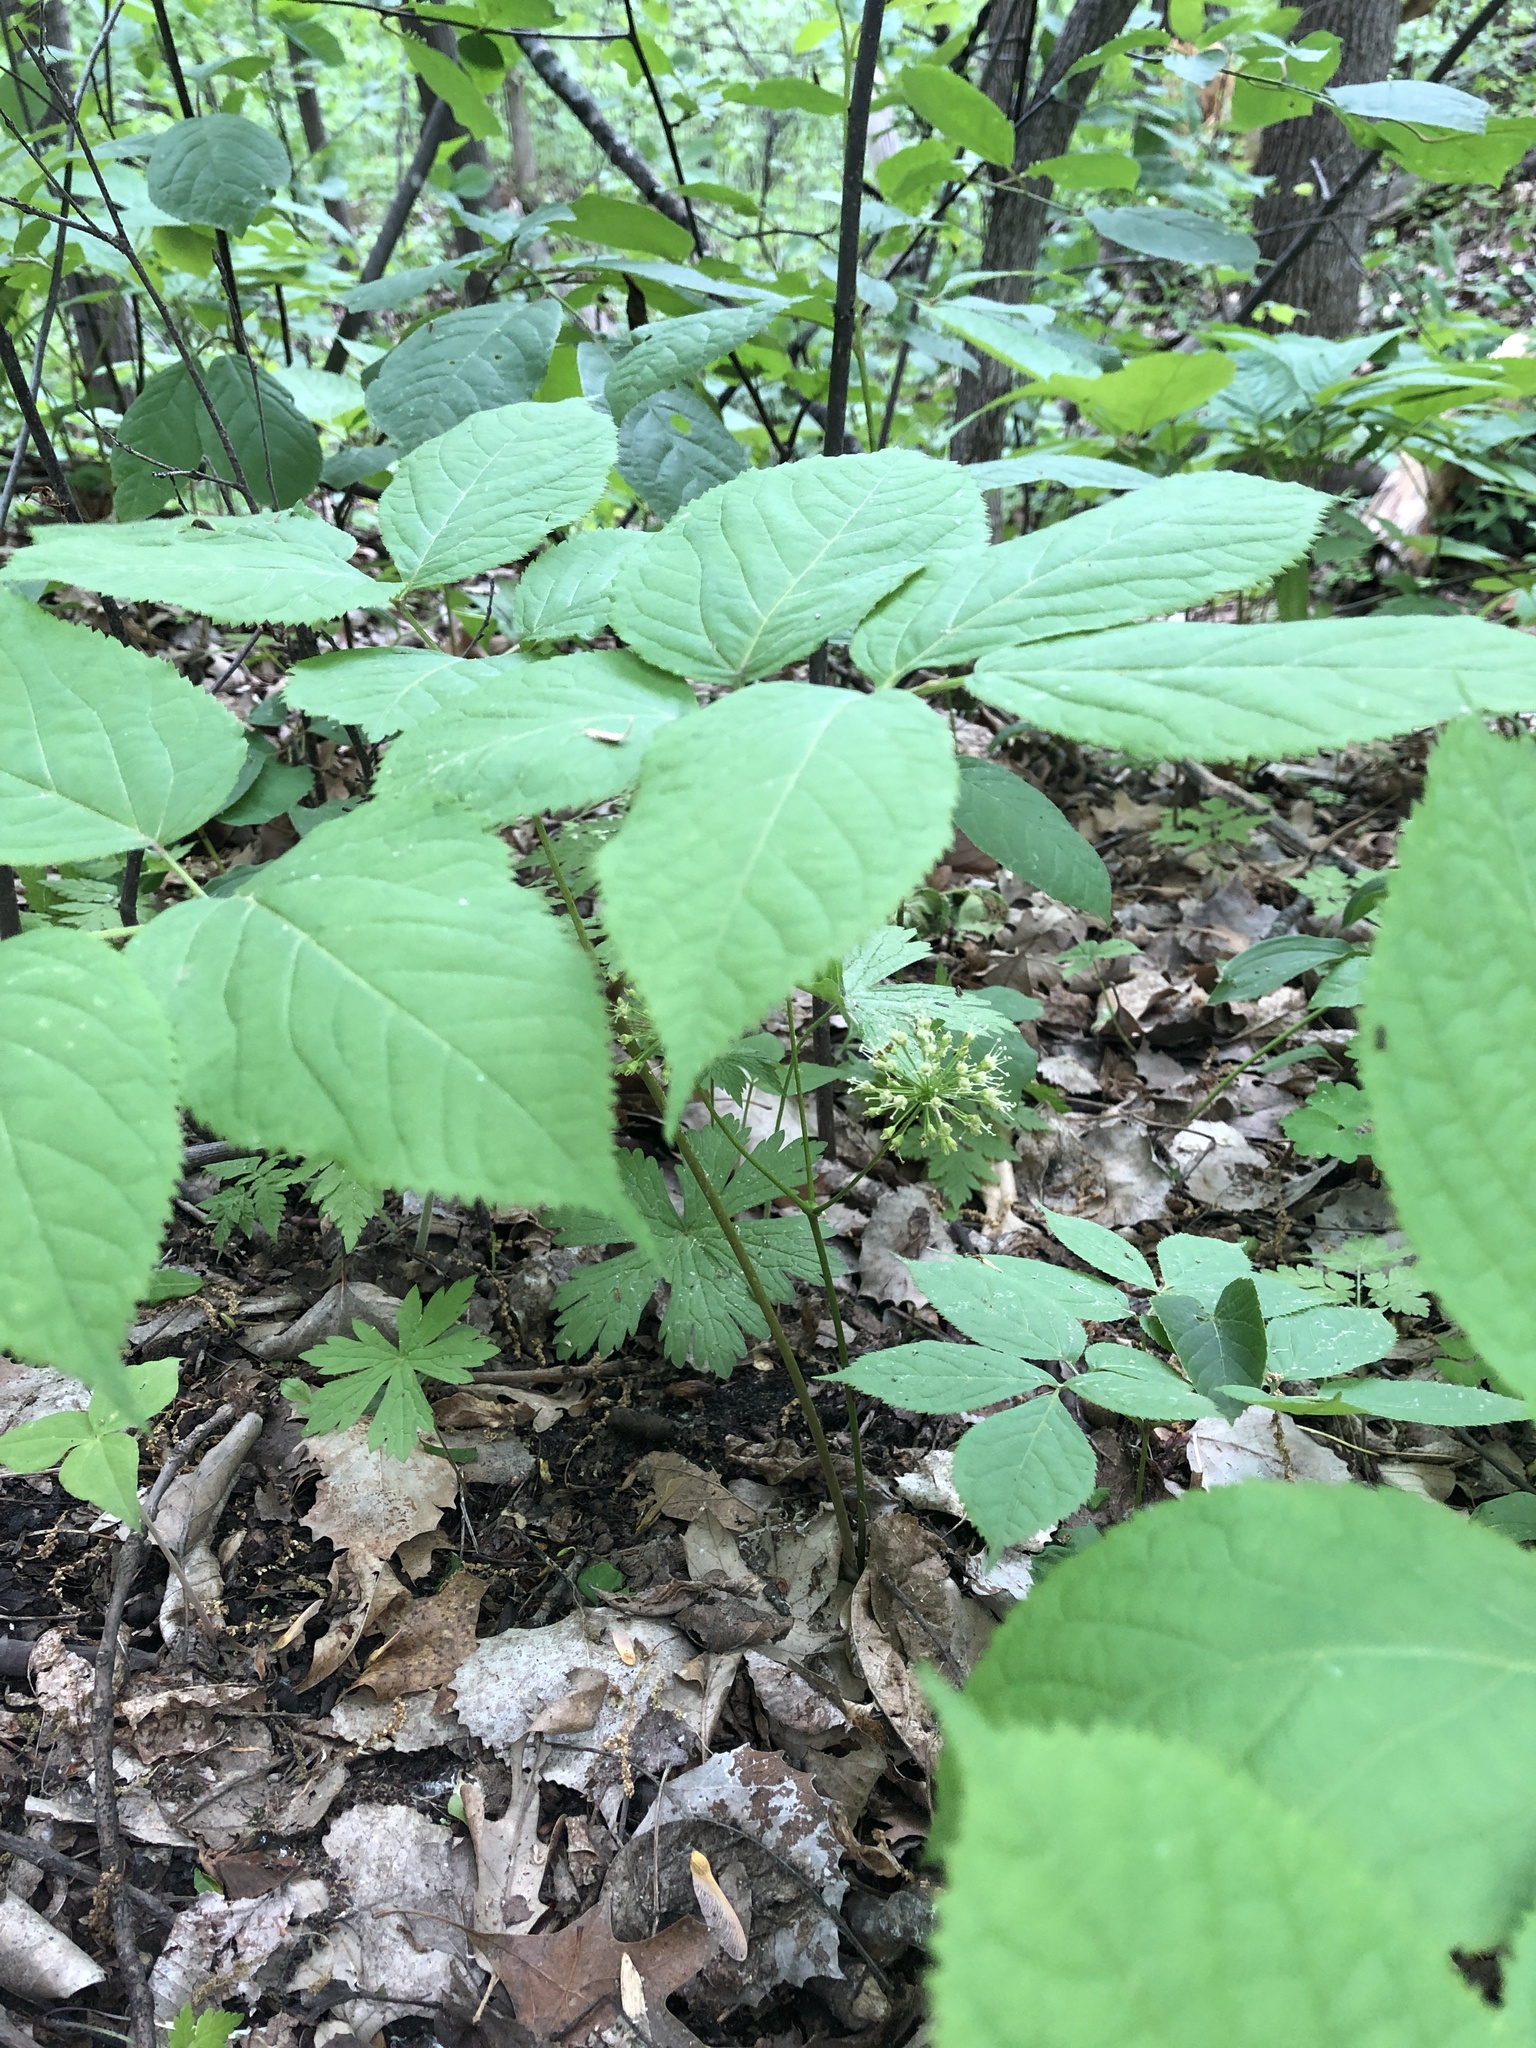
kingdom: Plantae
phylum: Tracheophyta
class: Magnoliopsida
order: Apiales
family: Araliaceae
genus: Aralia
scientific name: Aralia nudicaulis
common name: Wild sarsaparilla
